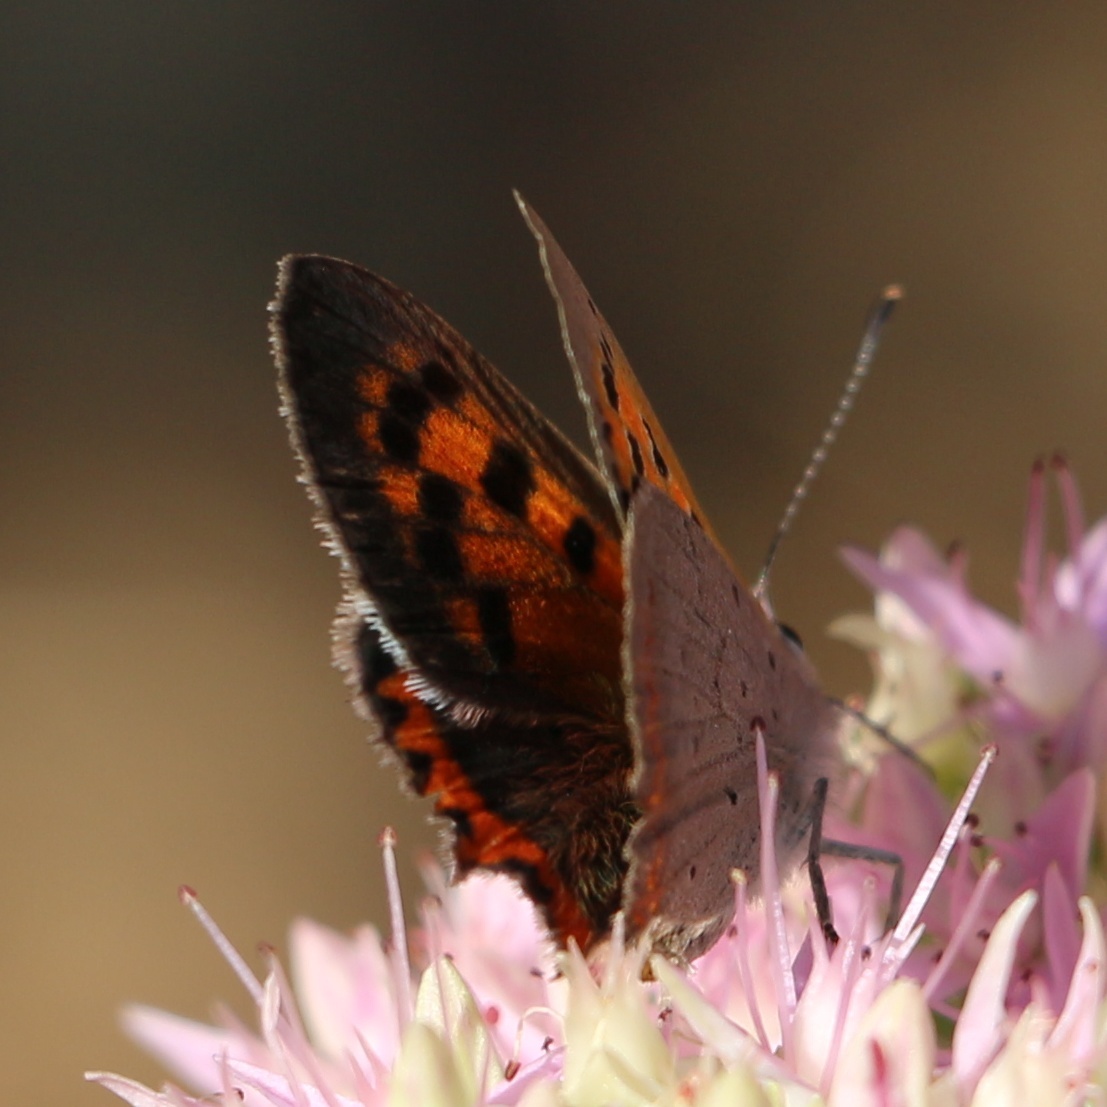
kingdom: Animalia
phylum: Arthropoda
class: Insecta
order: Lepidoptera
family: Lycaenidae
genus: Lycaena
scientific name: Lycaena phlaeas
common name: Small copper
